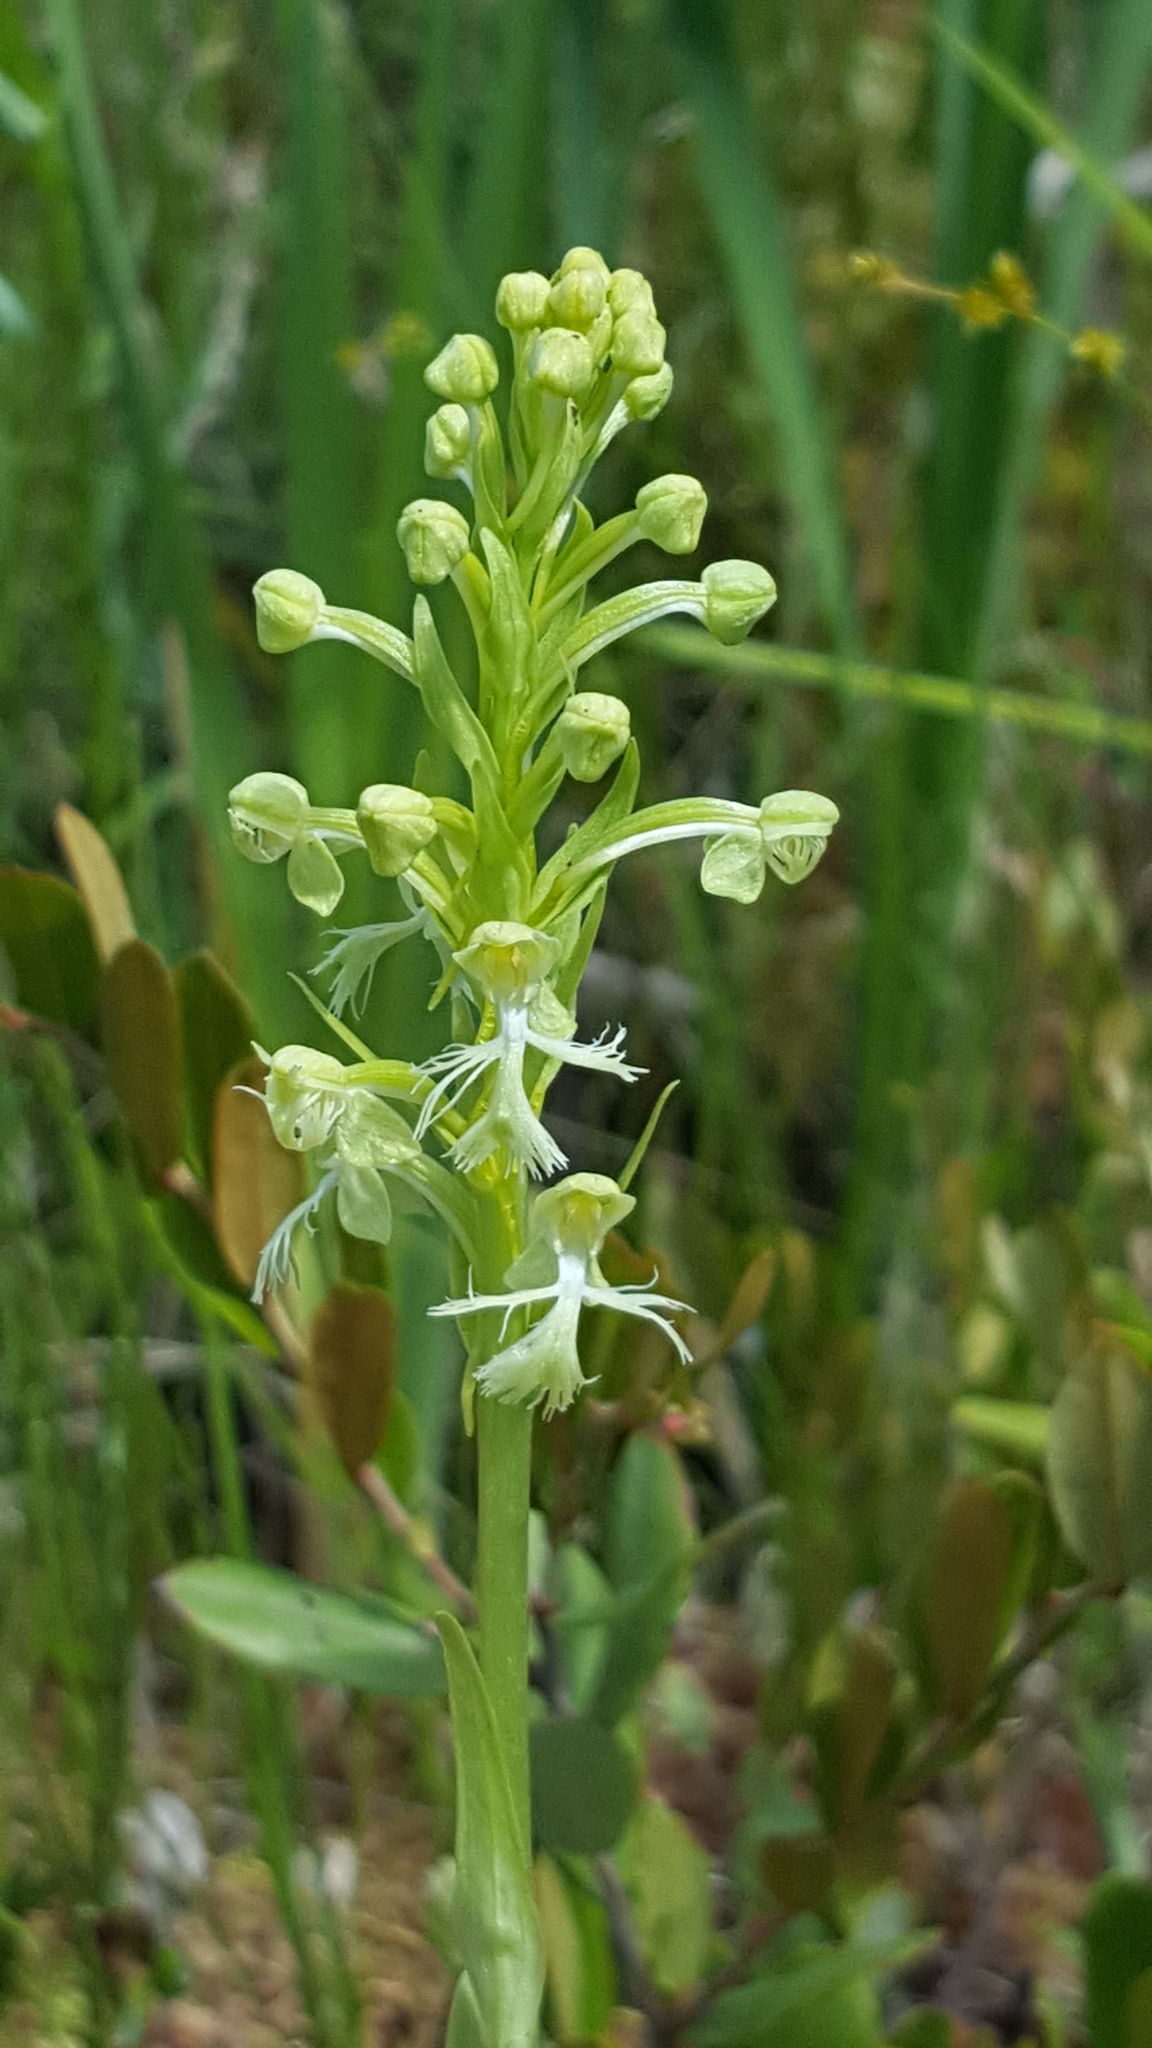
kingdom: Plantae
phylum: Tracheophyta
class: Liliopsida
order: Asparagales
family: Orchidaceae
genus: Platanthera
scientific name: Platanthera lacera
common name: Green fringed orchid
